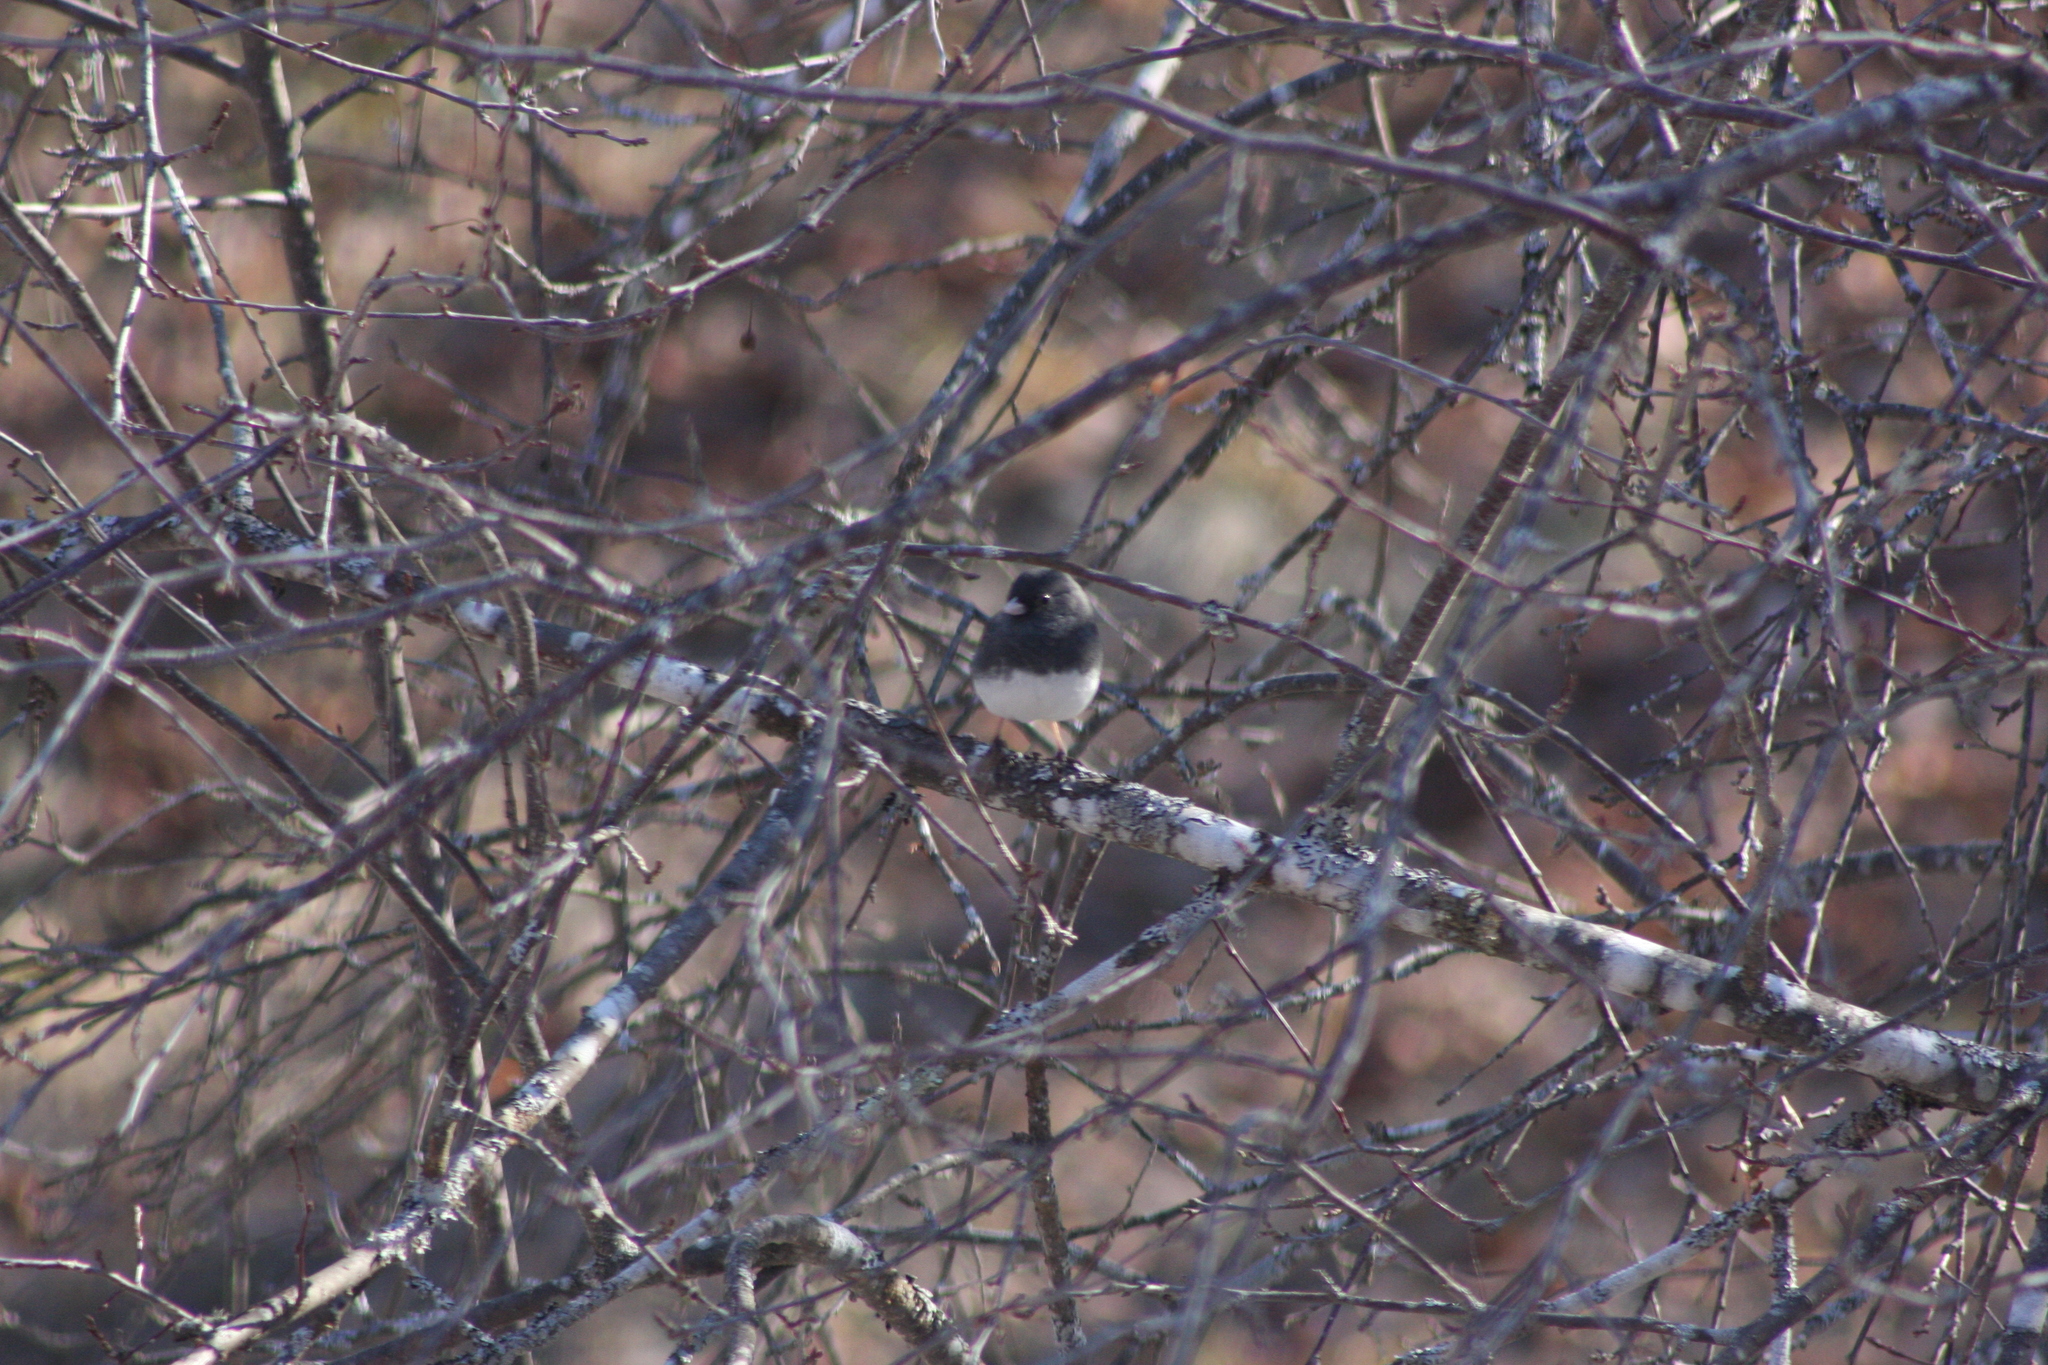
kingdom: Animalia
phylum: Chordata
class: Aves
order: Passeriformes
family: Passerellidae
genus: Junco
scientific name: Junco hyemalis
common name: Dark-eyed junco
